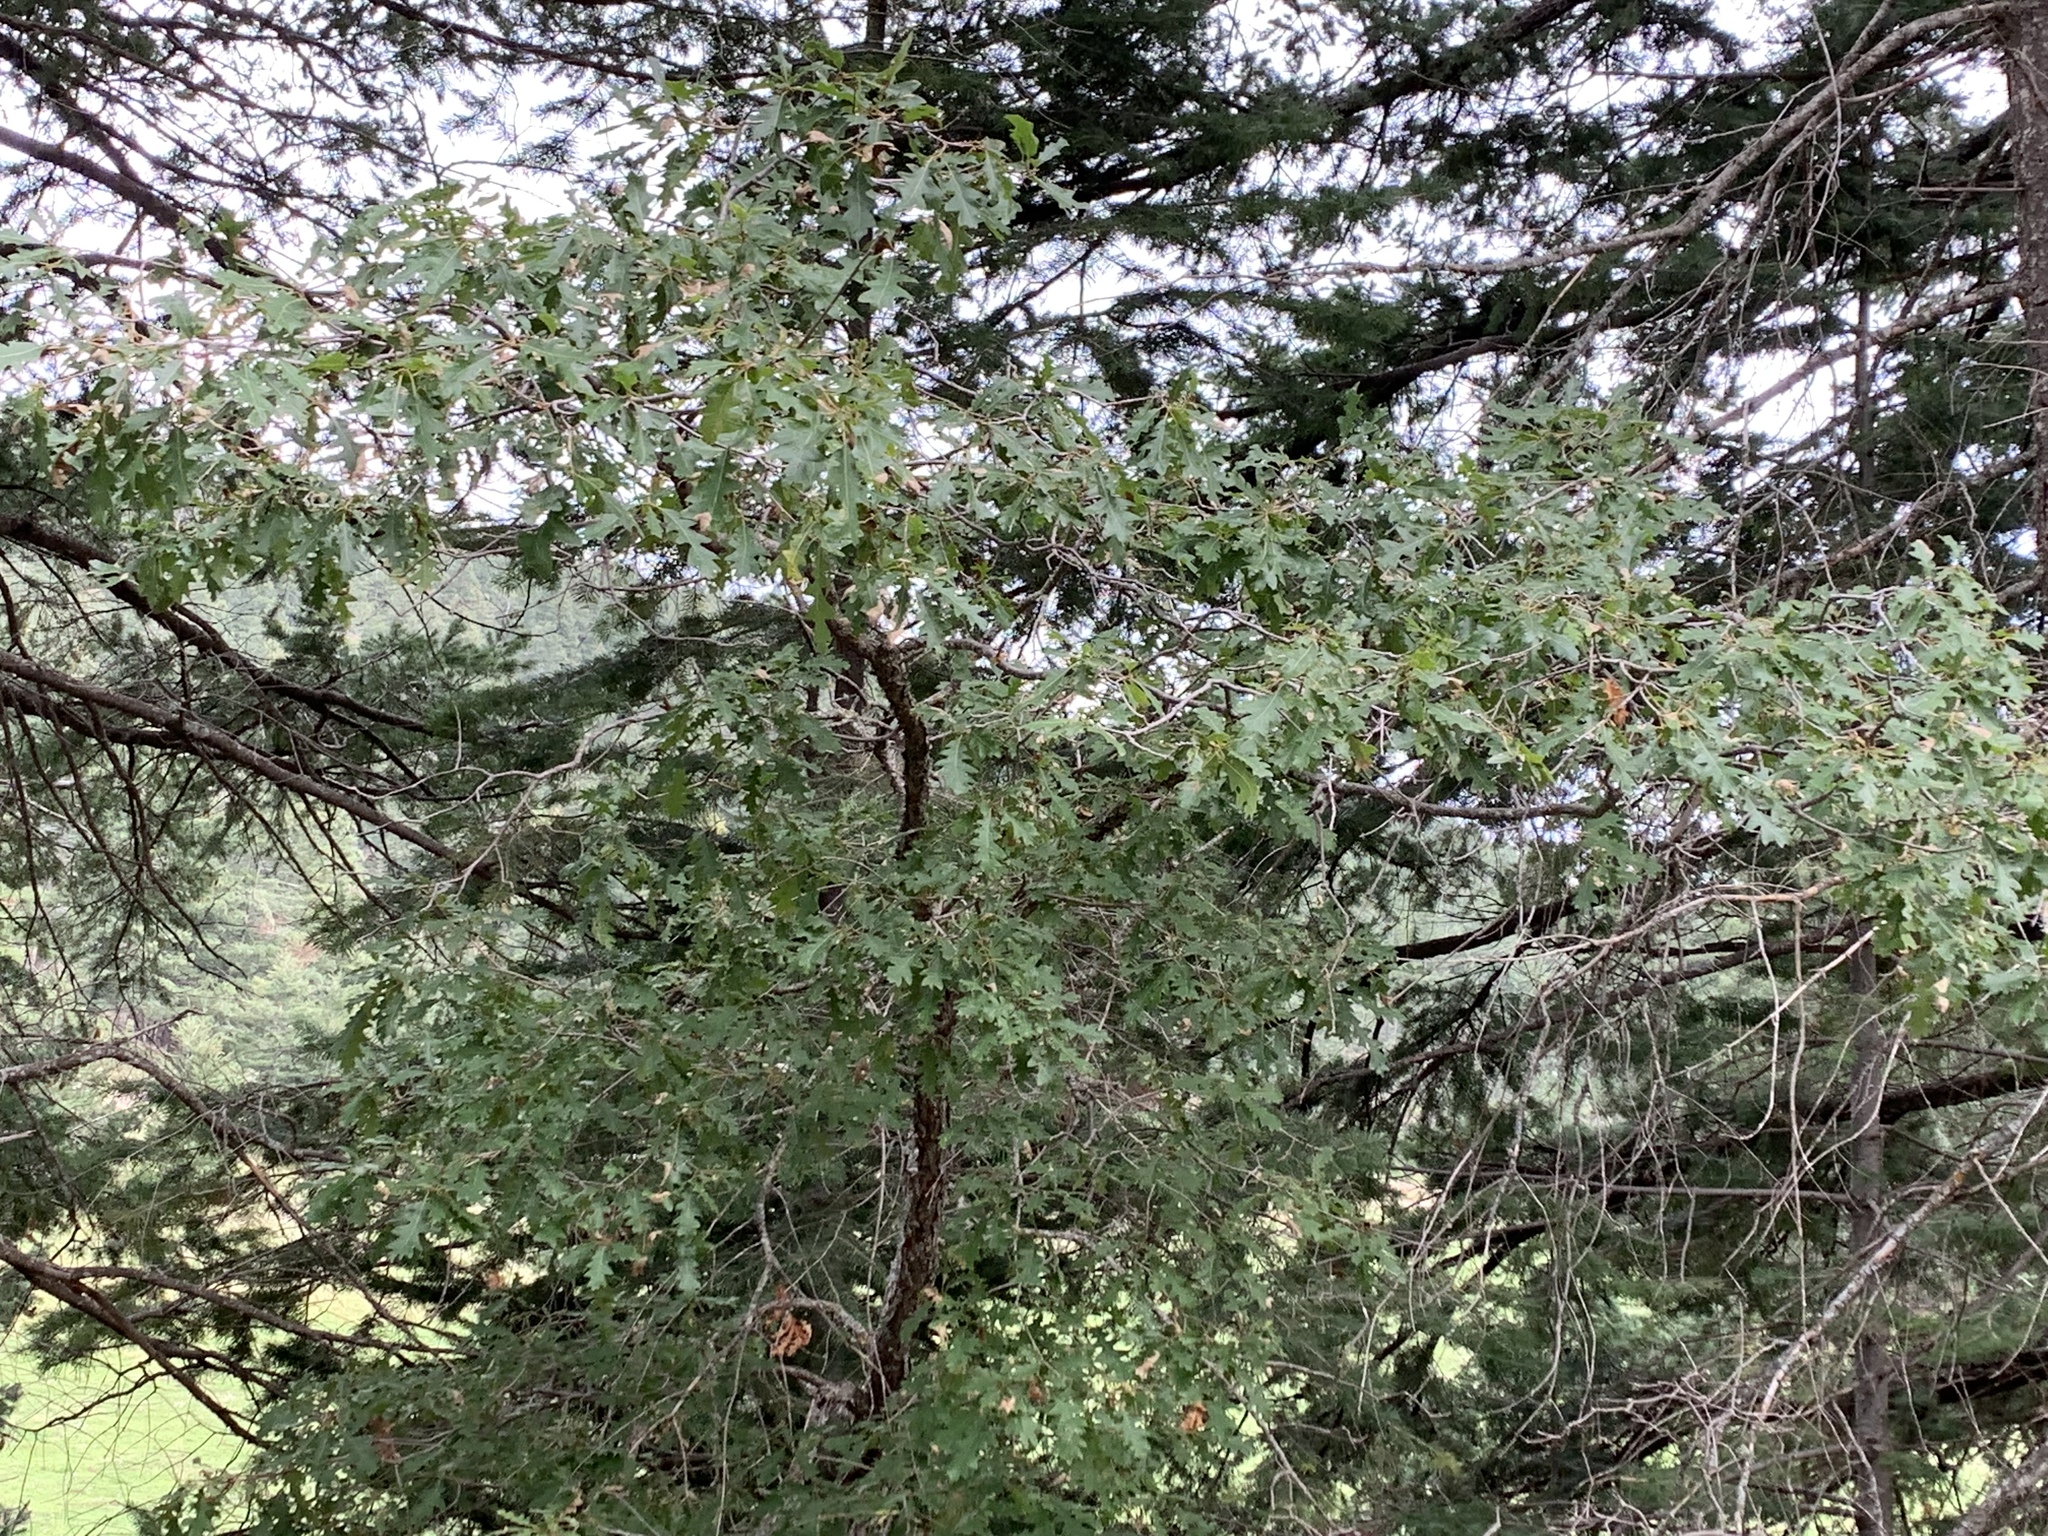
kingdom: Plantae
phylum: Tracheophyta
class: Magnoliopsida
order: Fagales
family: Fagaceae
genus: Quercus
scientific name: Quercus gambelii
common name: Gambel oak
